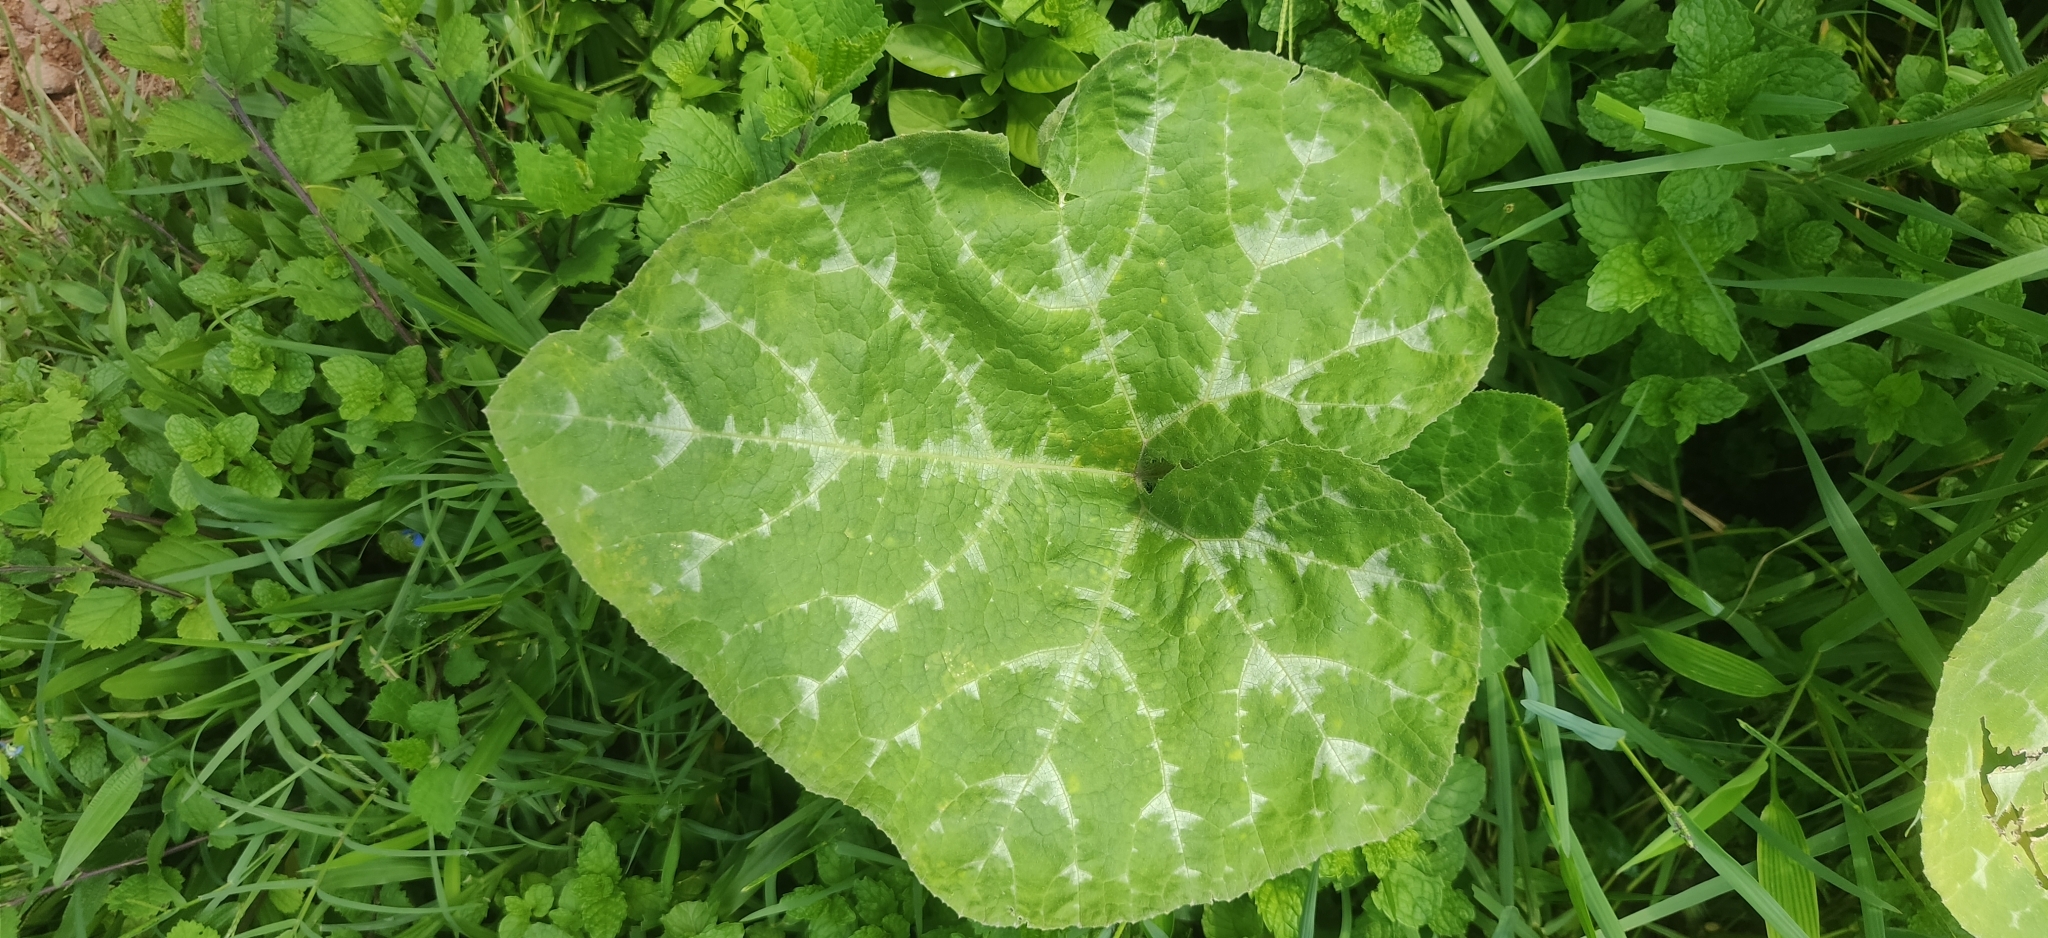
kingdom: Plantae
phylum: Tracheophyta
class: Magnoliopsida
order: Cucurbitales
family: Cucurbitaceae
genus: Cucurbita
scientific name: Cucurbita moschata
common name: Squash / pumpkin
